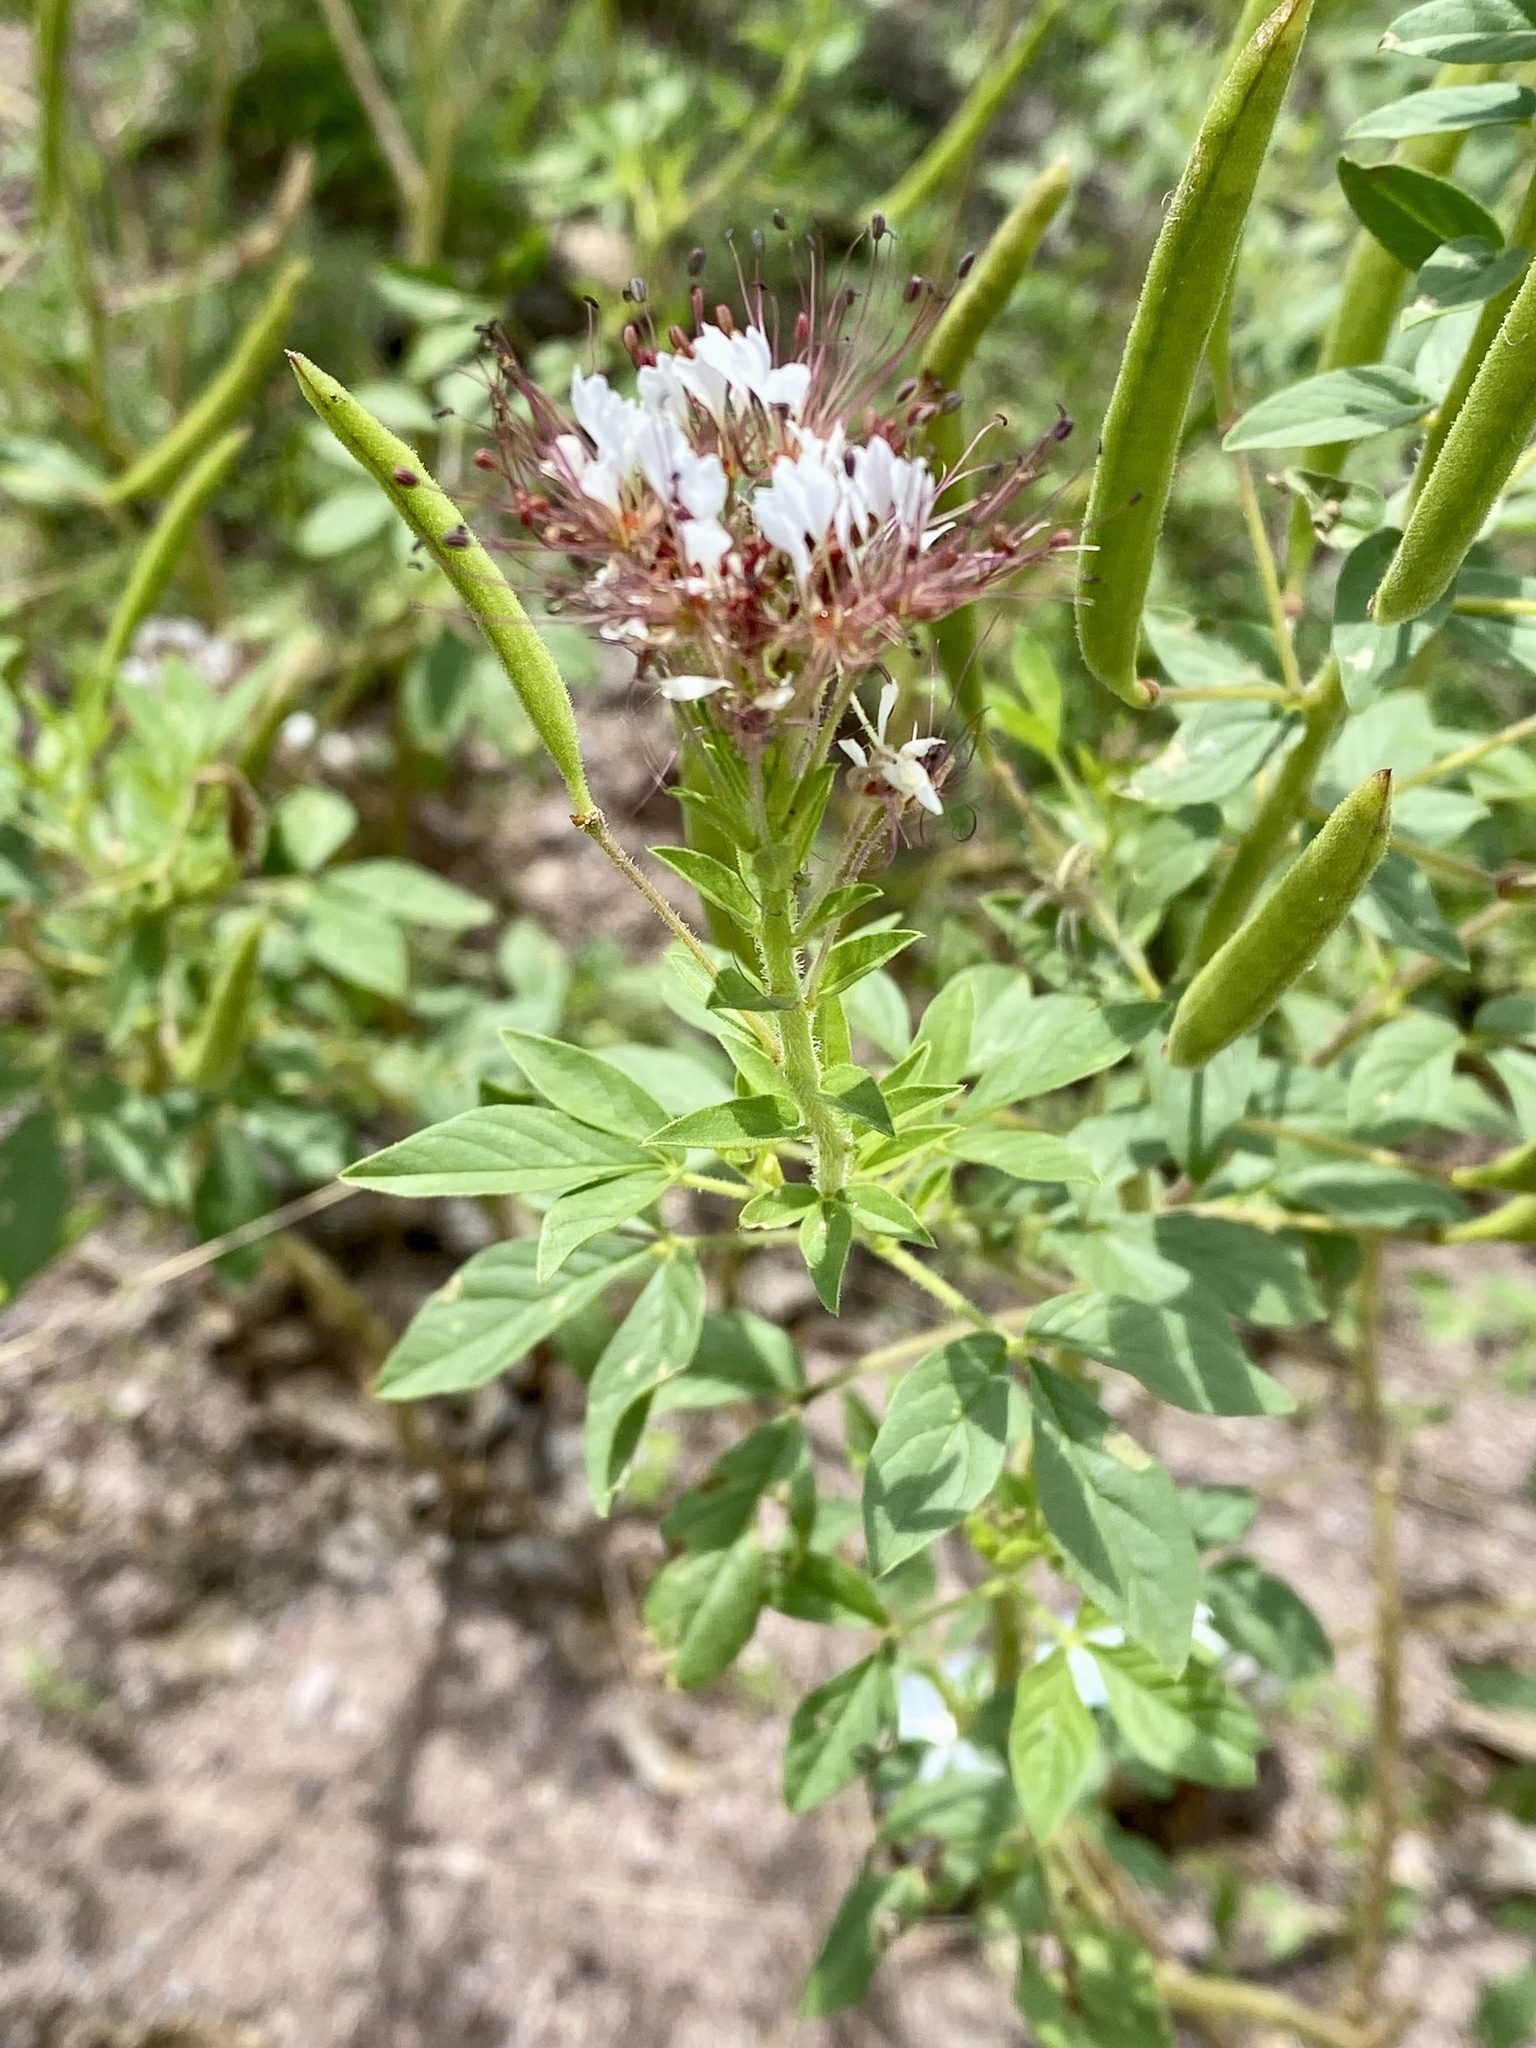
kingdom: Plantae
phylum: Tracheophyta
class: Magnoliopsida
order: Brassicales
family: Cleomaceae
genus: Polanisia
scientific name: Polanisia dodecandra
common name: Clammyweed
